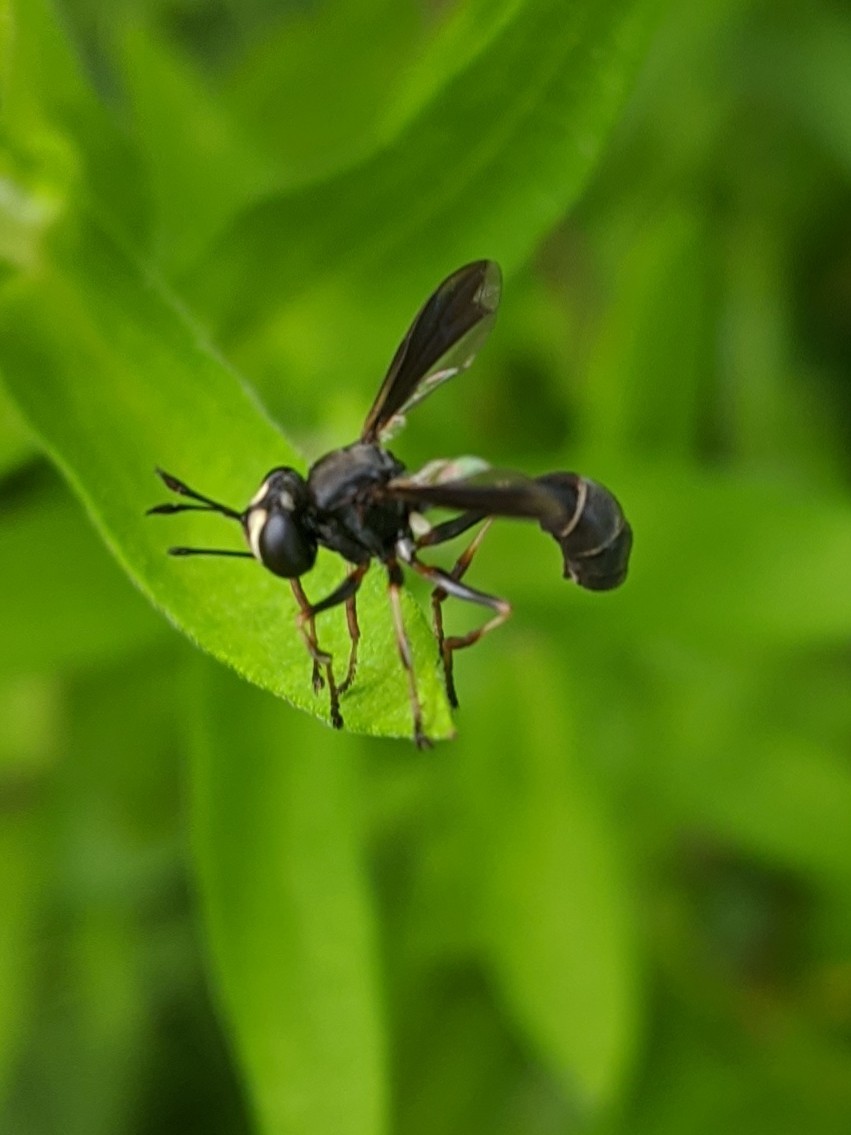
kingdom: Animalia
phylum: Arthropoda
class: Insecta
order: Diptera
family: Conopidae
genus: Physocephala
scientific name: Physocephala tibialis
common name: Common eastern physocephala
